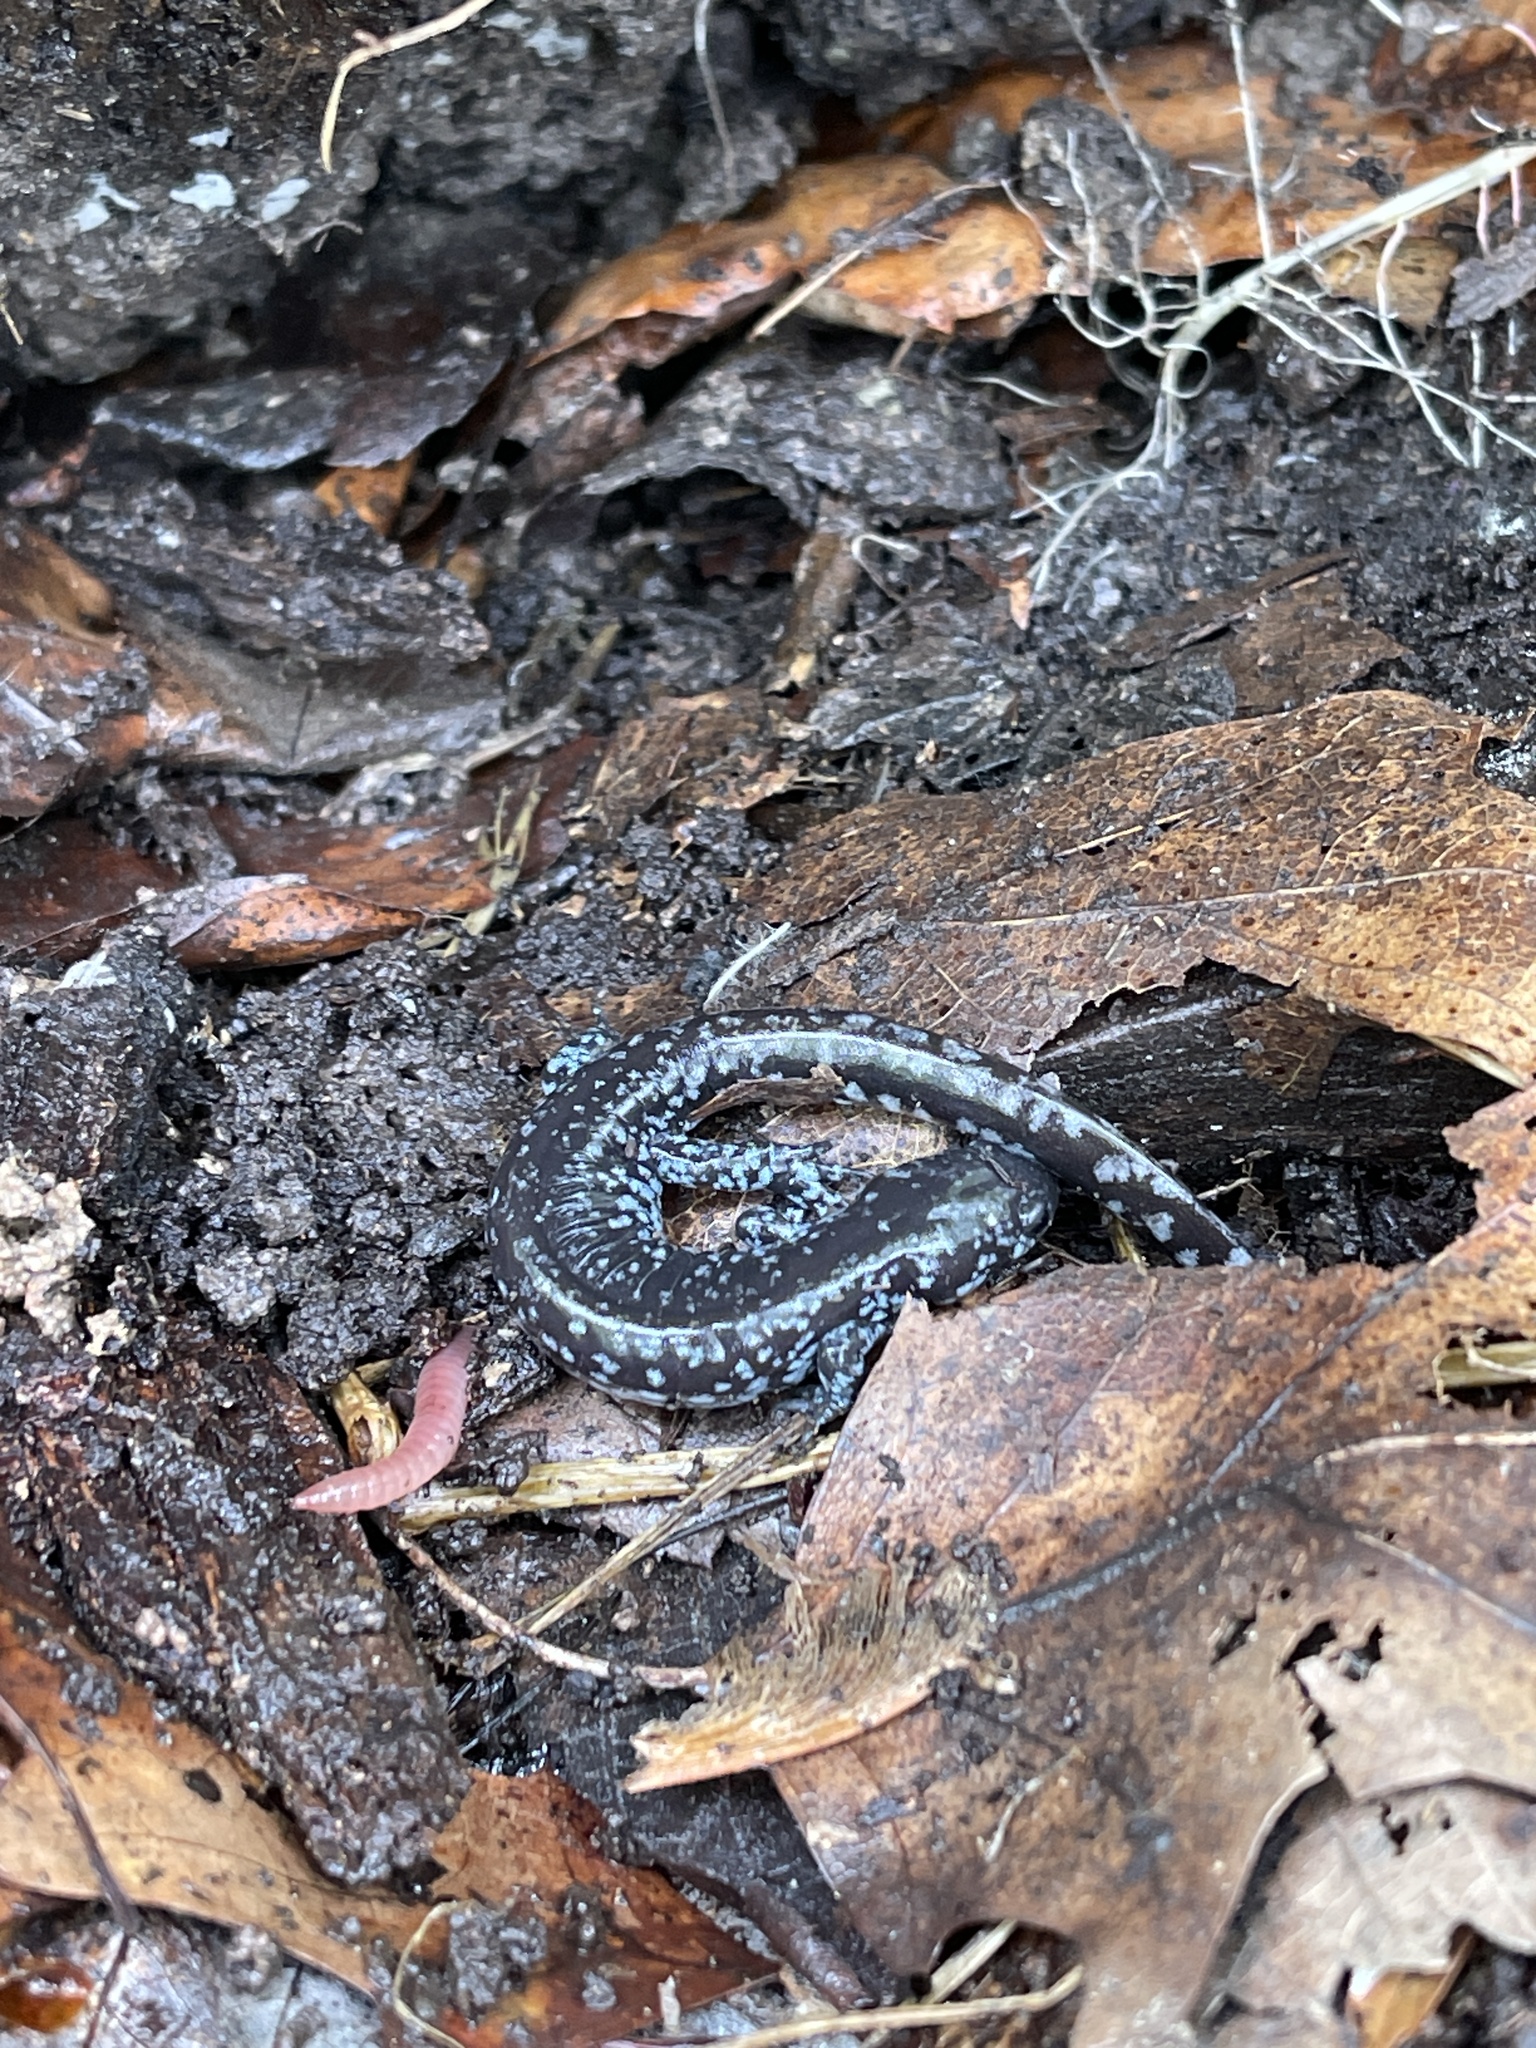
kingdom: Animalia
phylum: Chordata
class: Amphibia
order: Caudata
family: Ambystomatidae
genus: Ambystoma
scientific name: Ambystoma laterale
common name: Blue-spotted salamander
